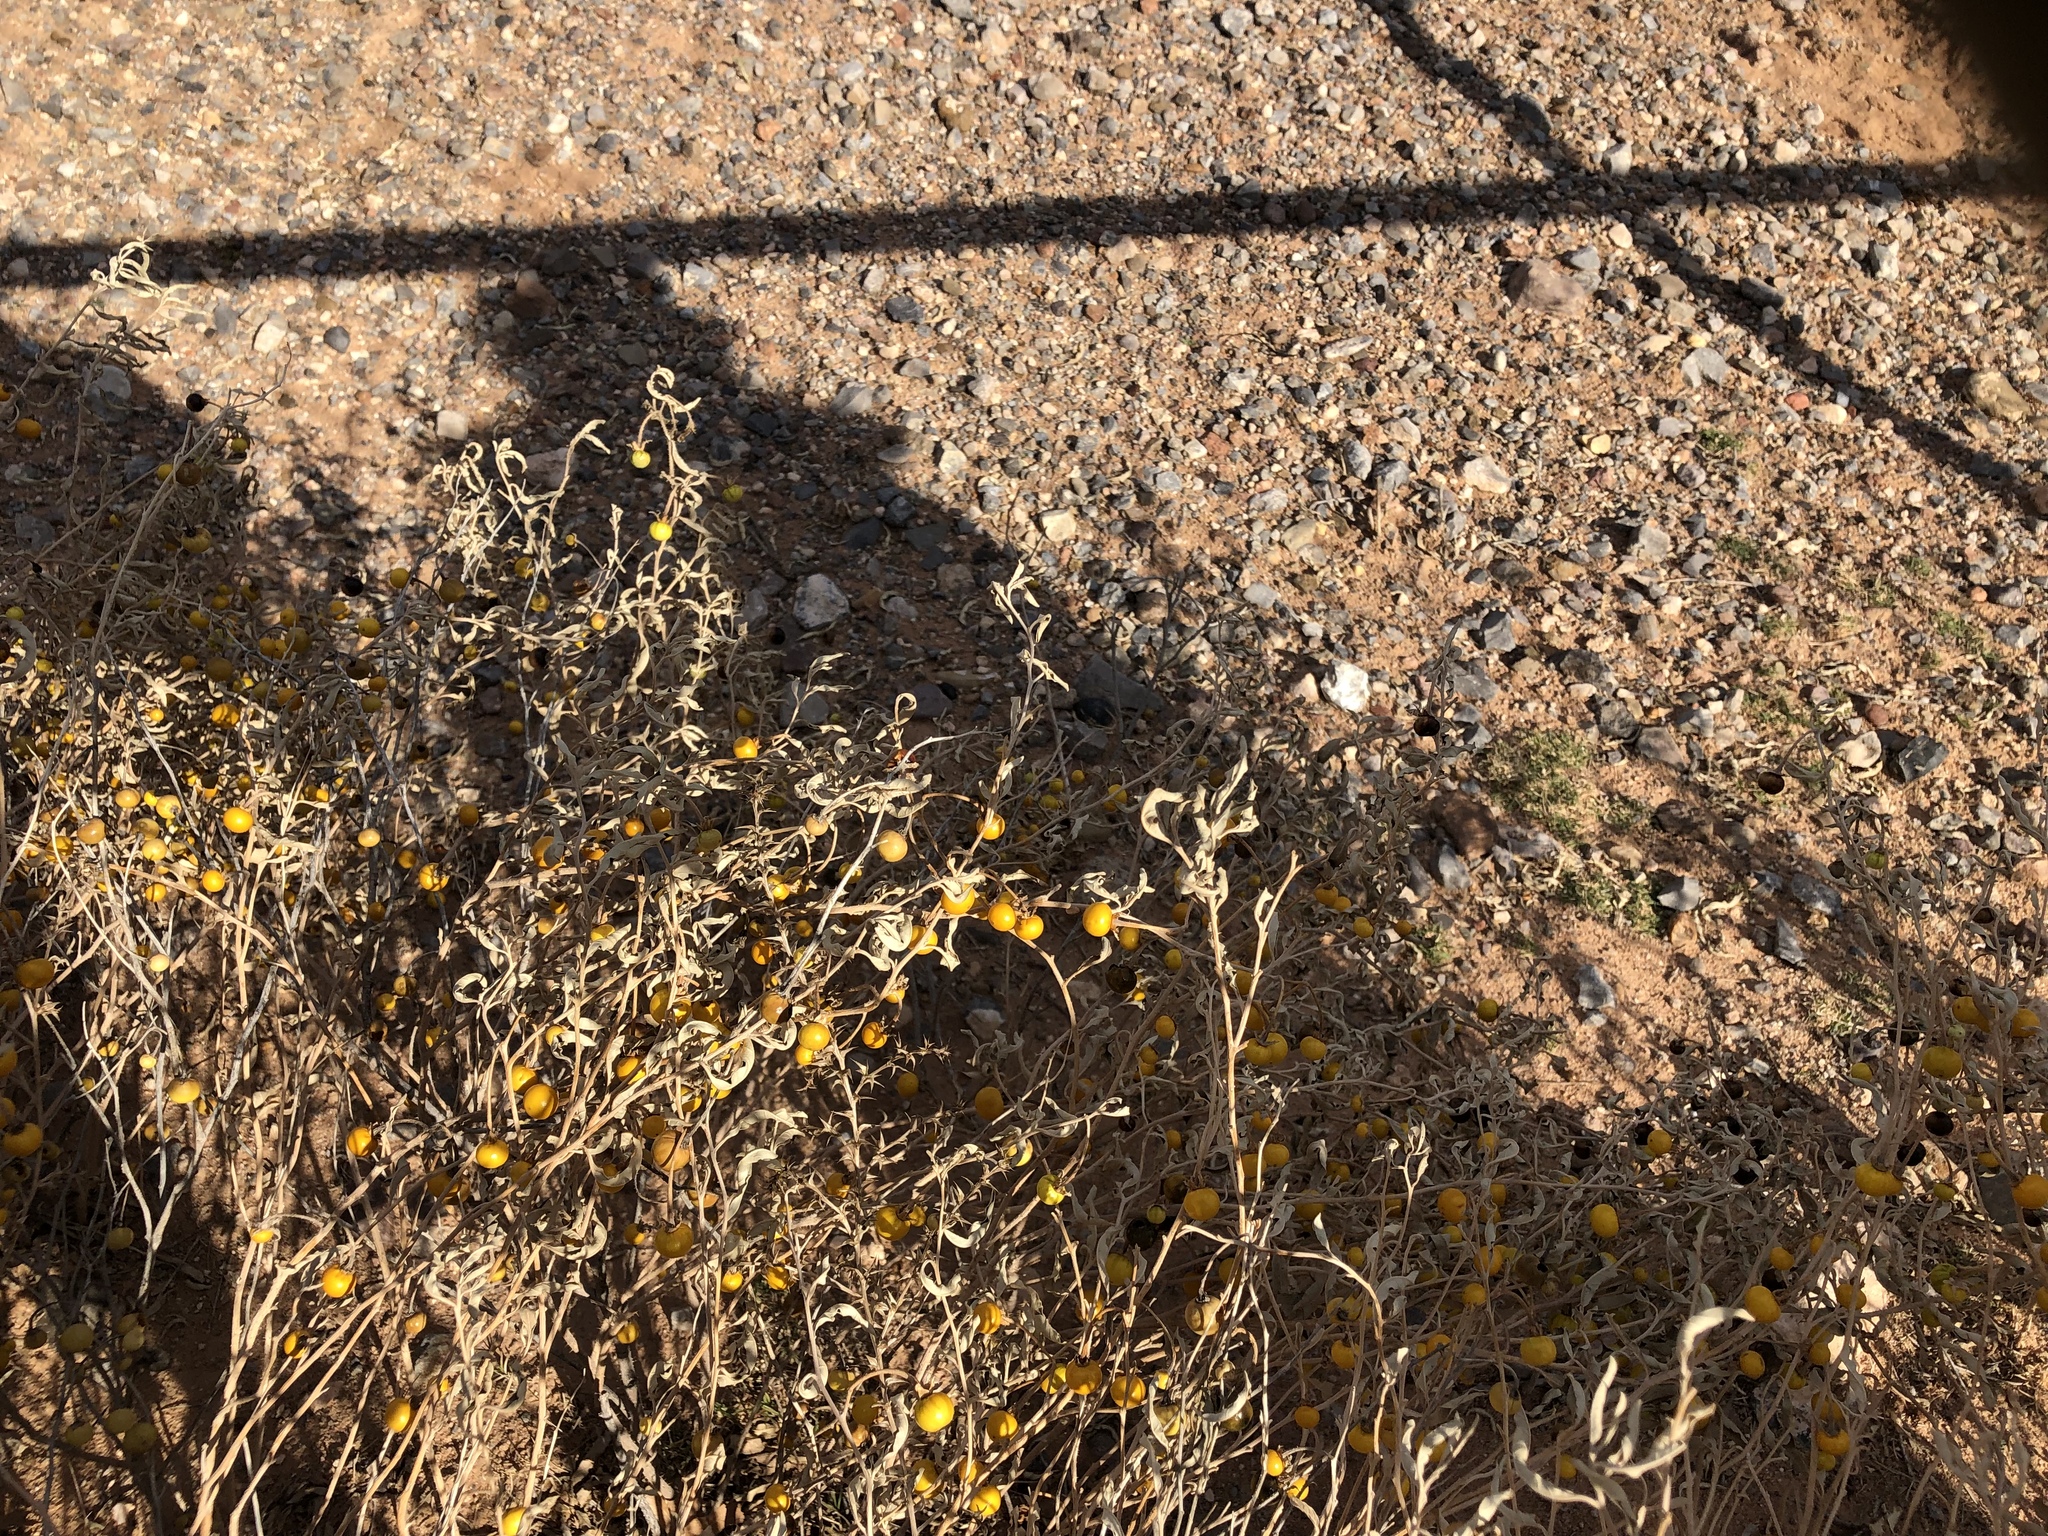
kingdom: Plantae
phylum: Tracheophyta
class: Magnoliopsida
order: Solanales
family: Solanaceae
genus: Solanum
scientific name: Solanum elaeagnifolium
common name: Silverleaf nightshade
